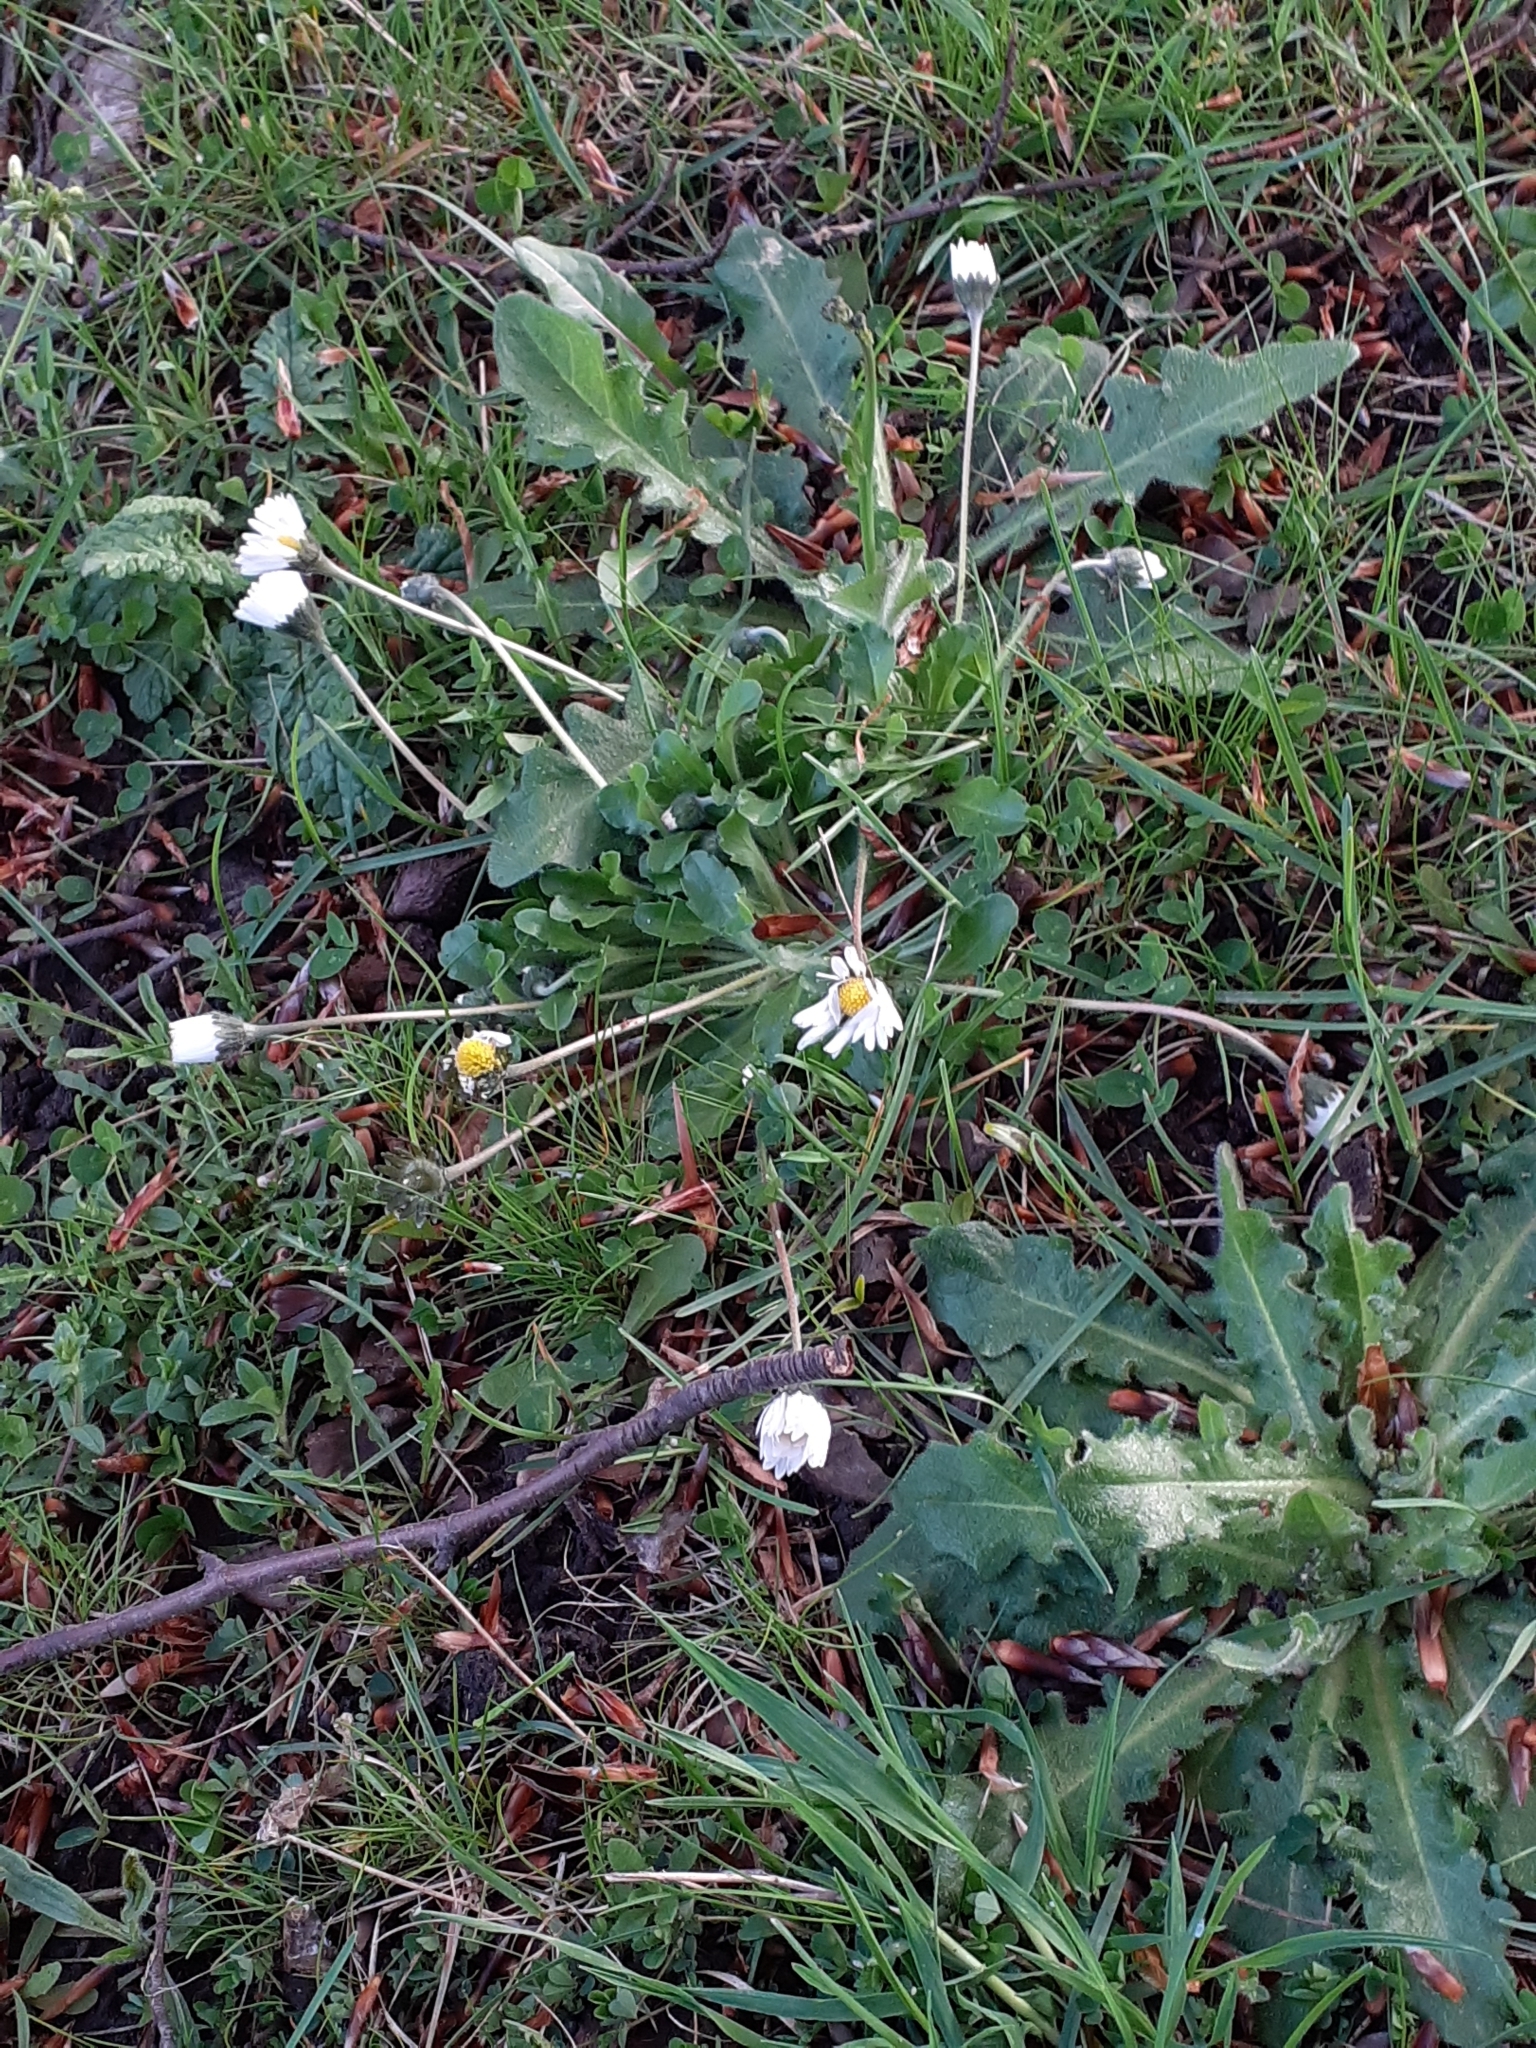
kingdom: Plantae
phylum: Tracheophyta
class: Magnoliopsida
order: Asterales
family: Asteraceae
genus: Bellis
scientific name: Bellis perennis
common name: Lawndaisy
